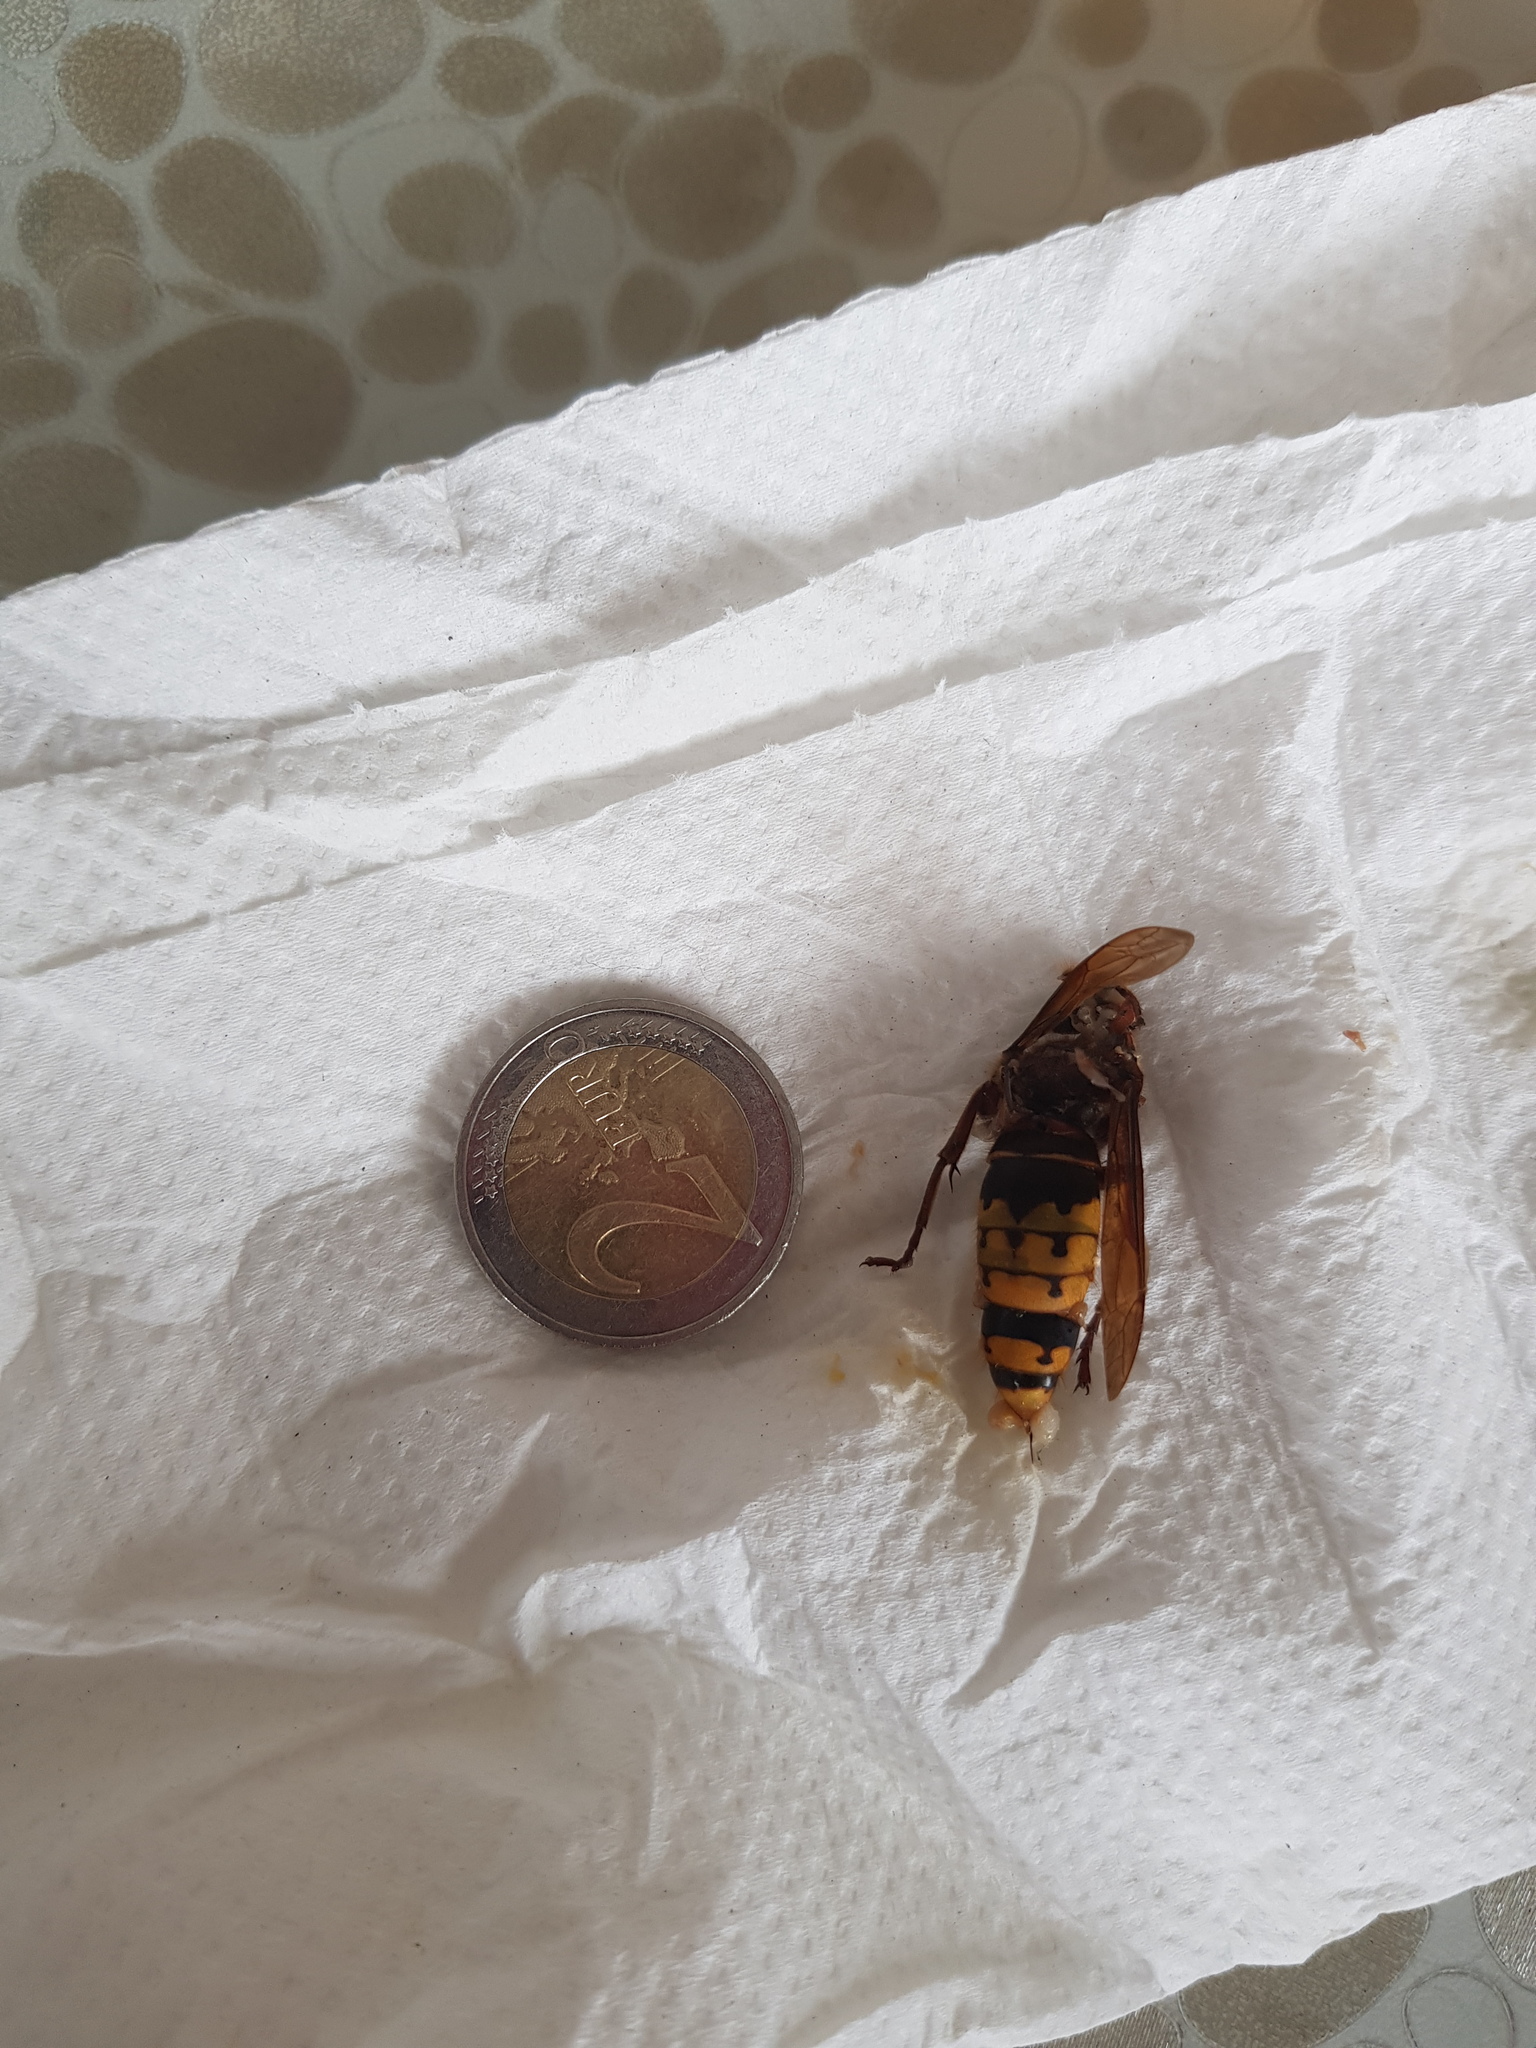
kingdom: Animalia
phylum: Arthropoda
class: Insecta
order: Hymenoptera
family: Vespidae
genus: Vespa
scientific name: Vespa crabro
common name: Hornet
